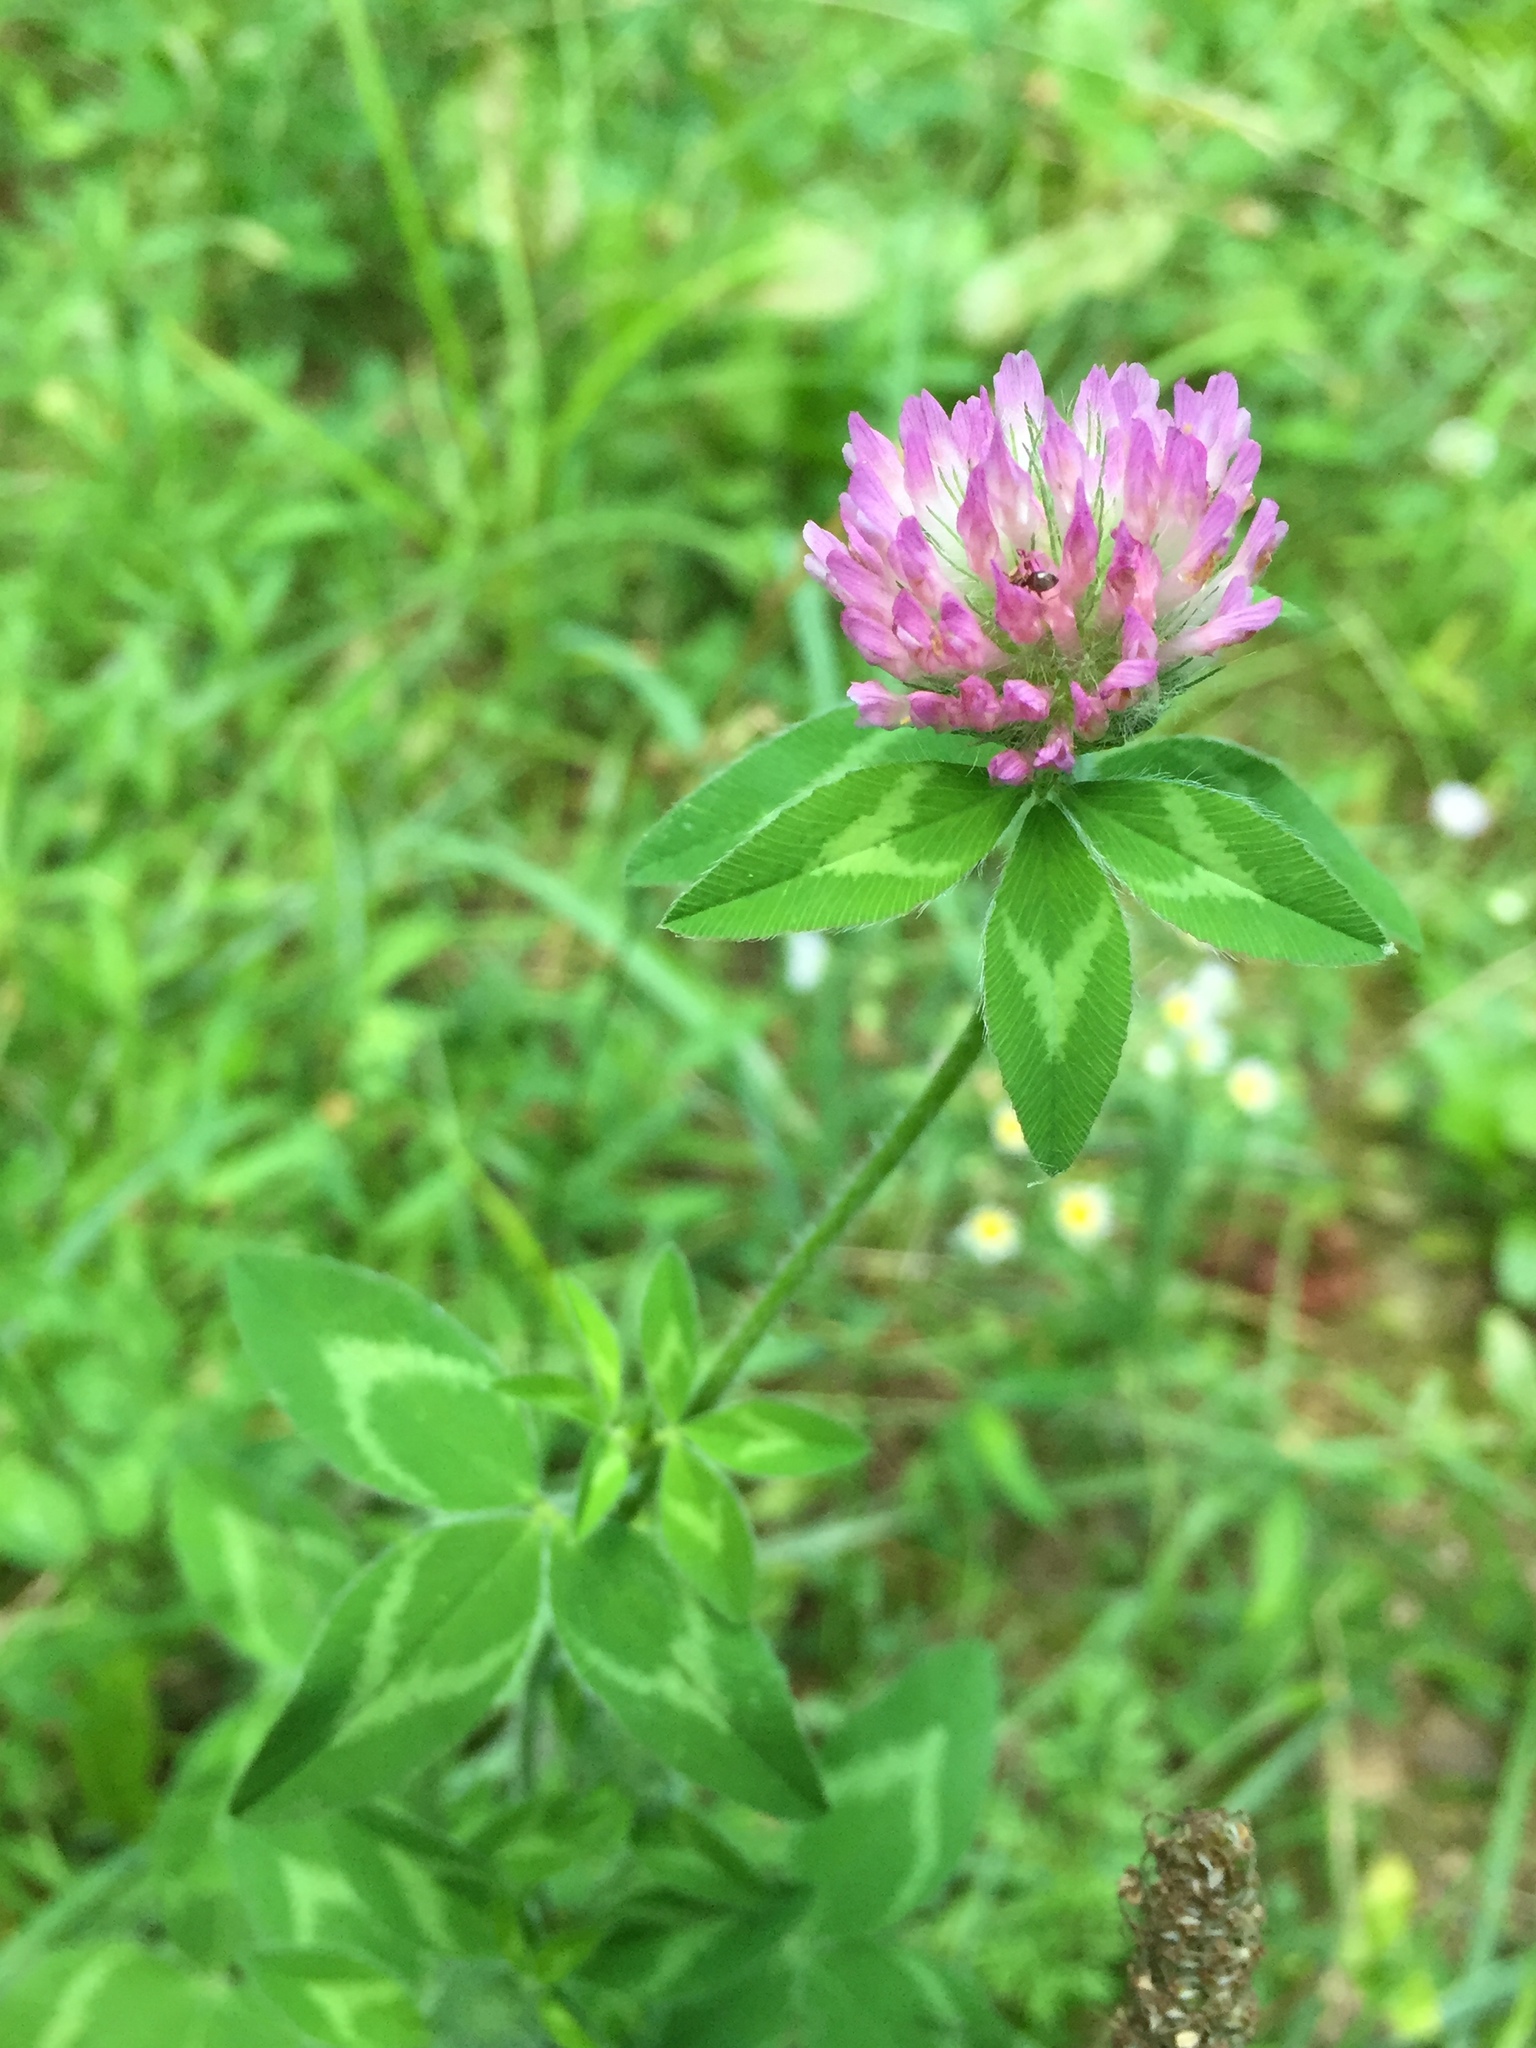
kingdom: Plantae
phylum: Tracheophyta
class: Magnoliopsida
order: Fabales
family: Fabaceae
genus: Trifolium
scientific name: Trifolium pratense
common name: Red clover
